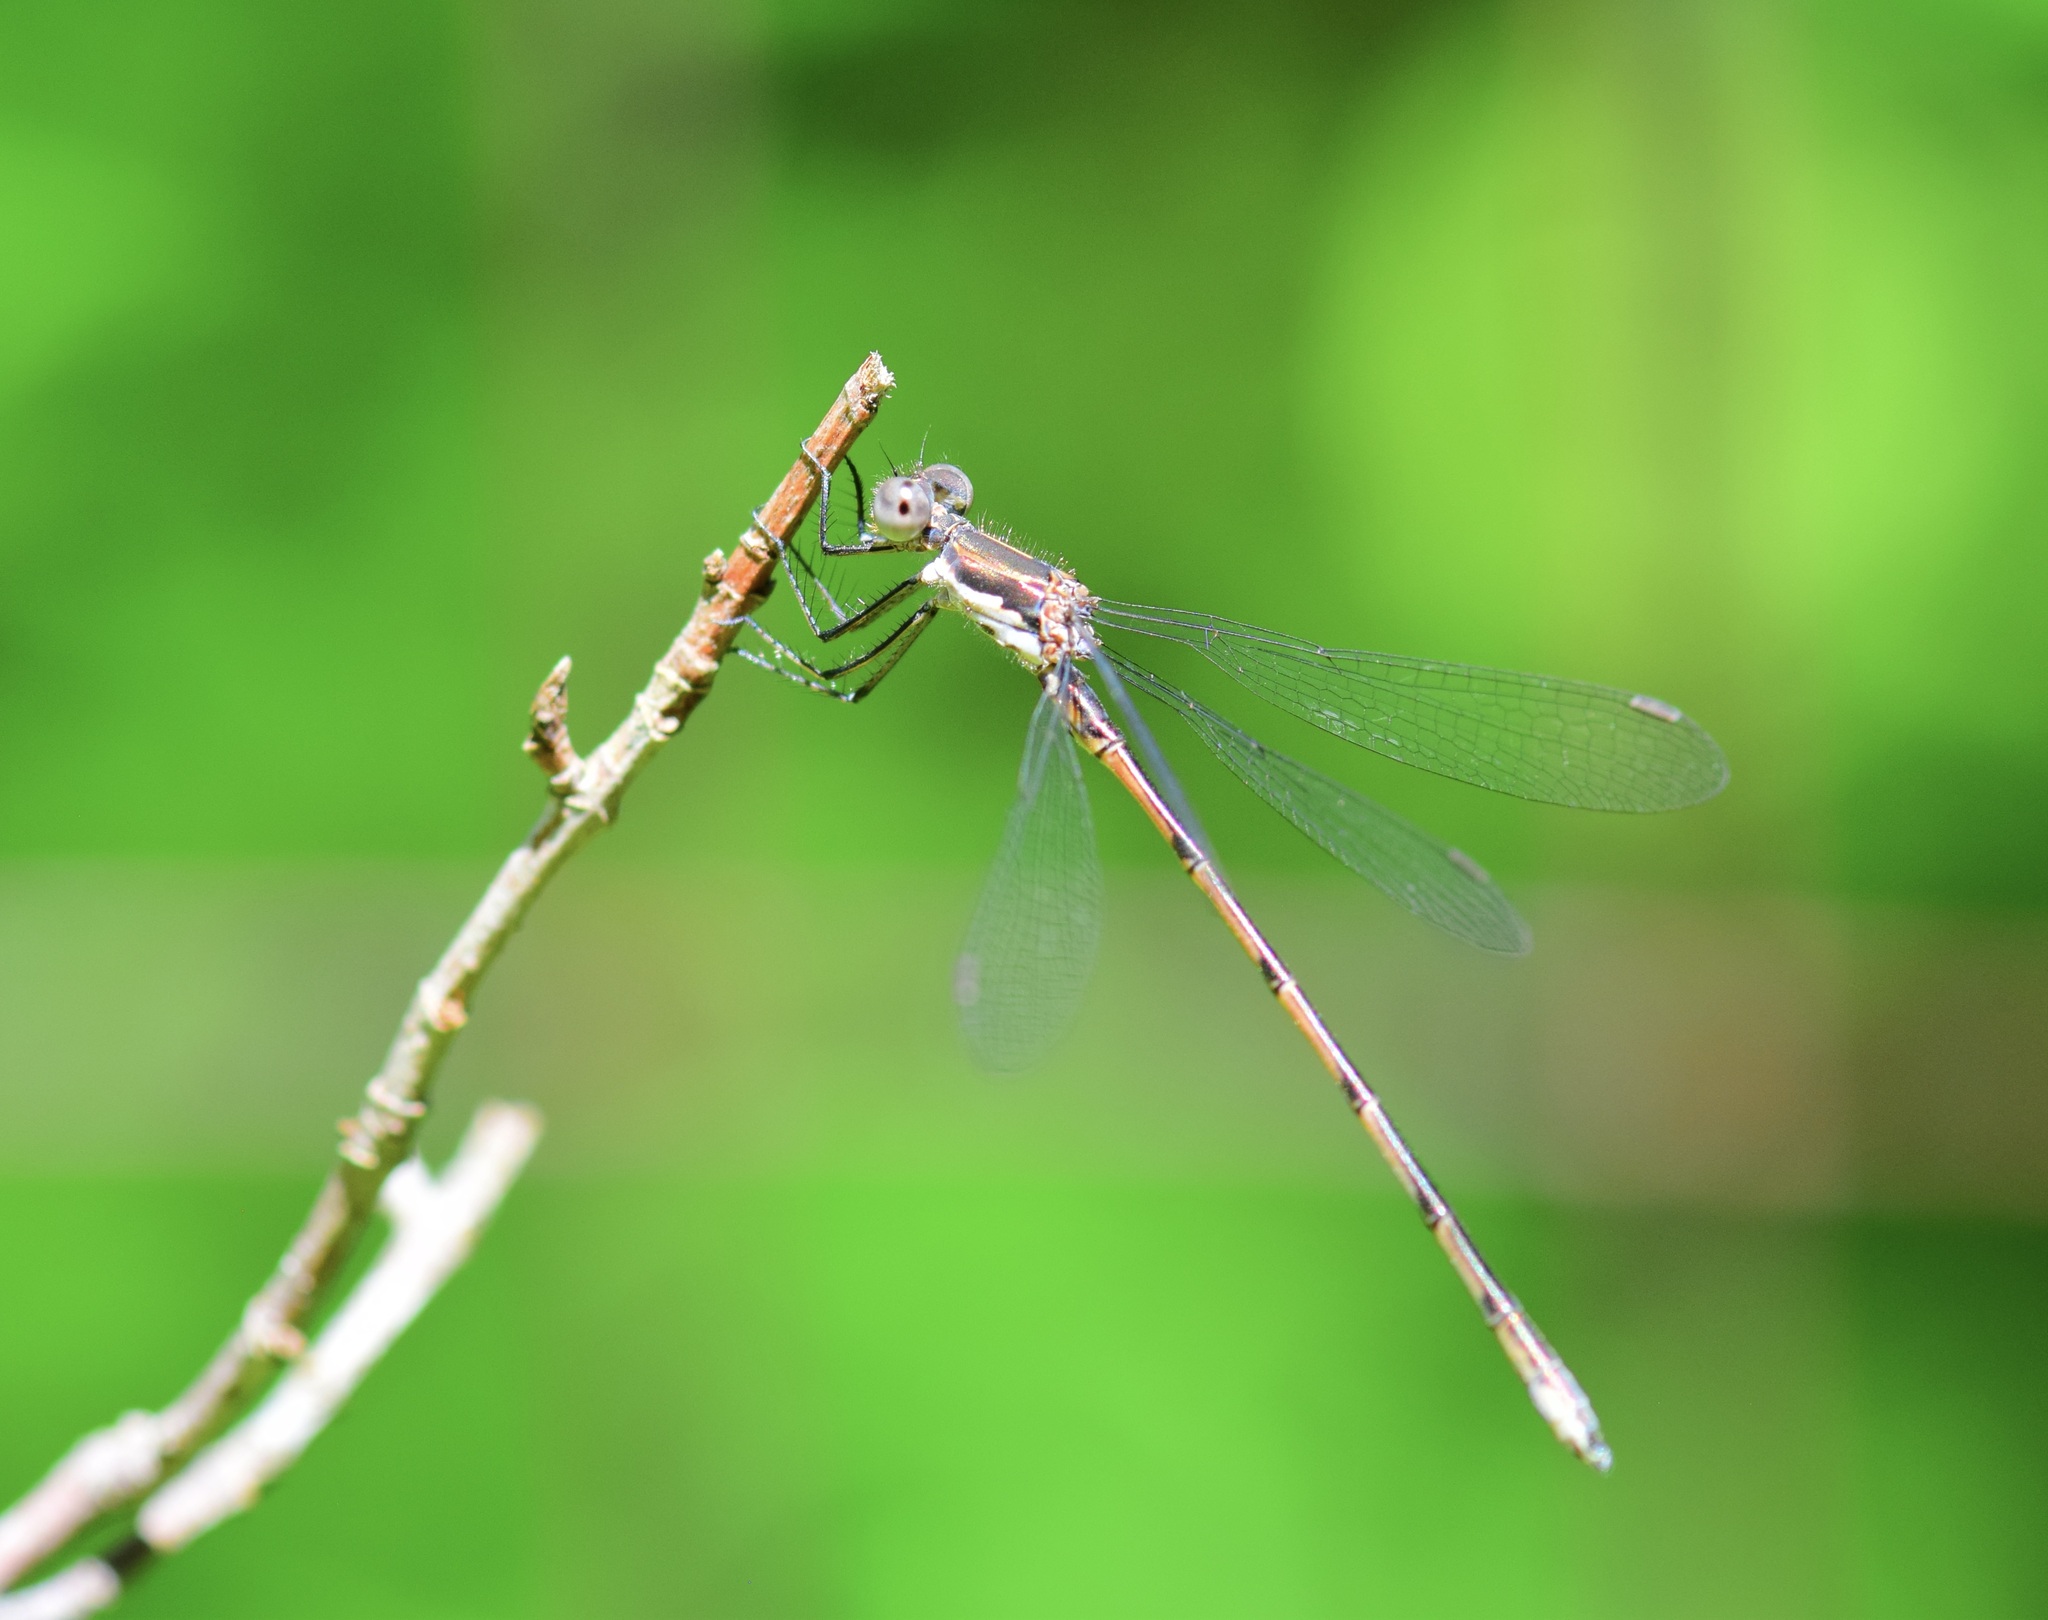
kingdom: Animalia
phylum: Arthropoda
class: Insecta
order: Odonata
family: Lestidae
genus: Lestes
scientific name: Lestes congener
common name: Spotted spreadwing
